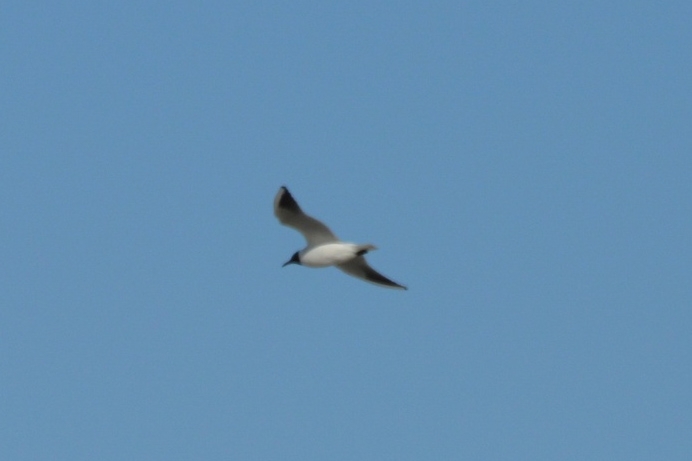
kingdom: Animalia
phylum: Chordata
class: Aves
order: Charadriiformes
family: Laridae
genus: Chroicocephalus
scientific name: Chroicocephalus ridibundus
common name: Black-headed gull
